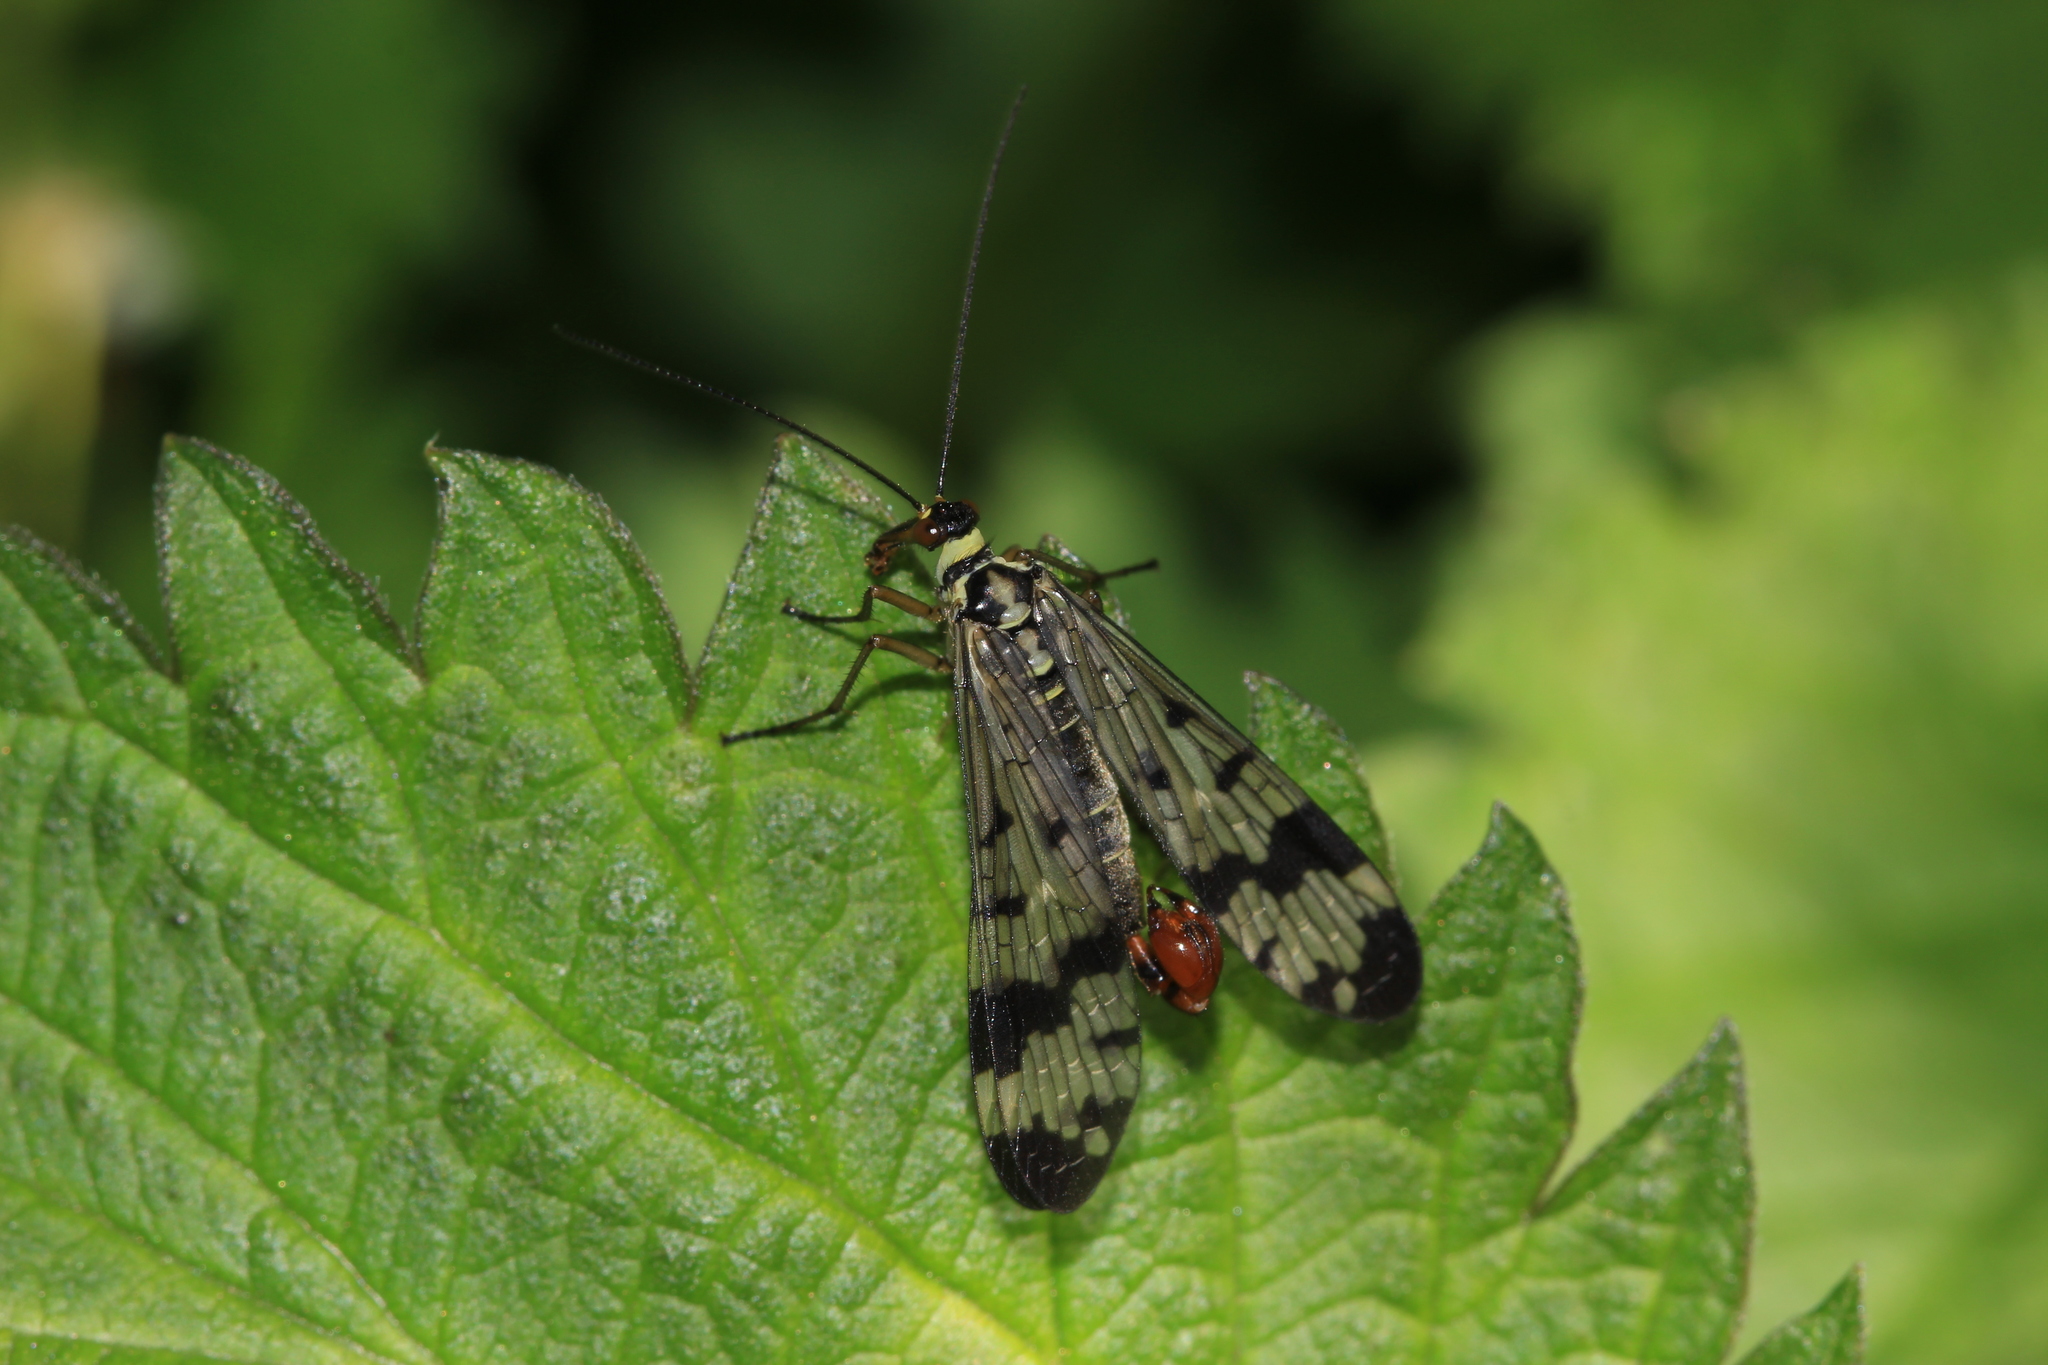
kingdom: Animalia
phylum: Arthropoda
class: Insecta
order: Mecoptera
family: Panorpidae
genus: Panorpa
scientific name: Panorpa communis
